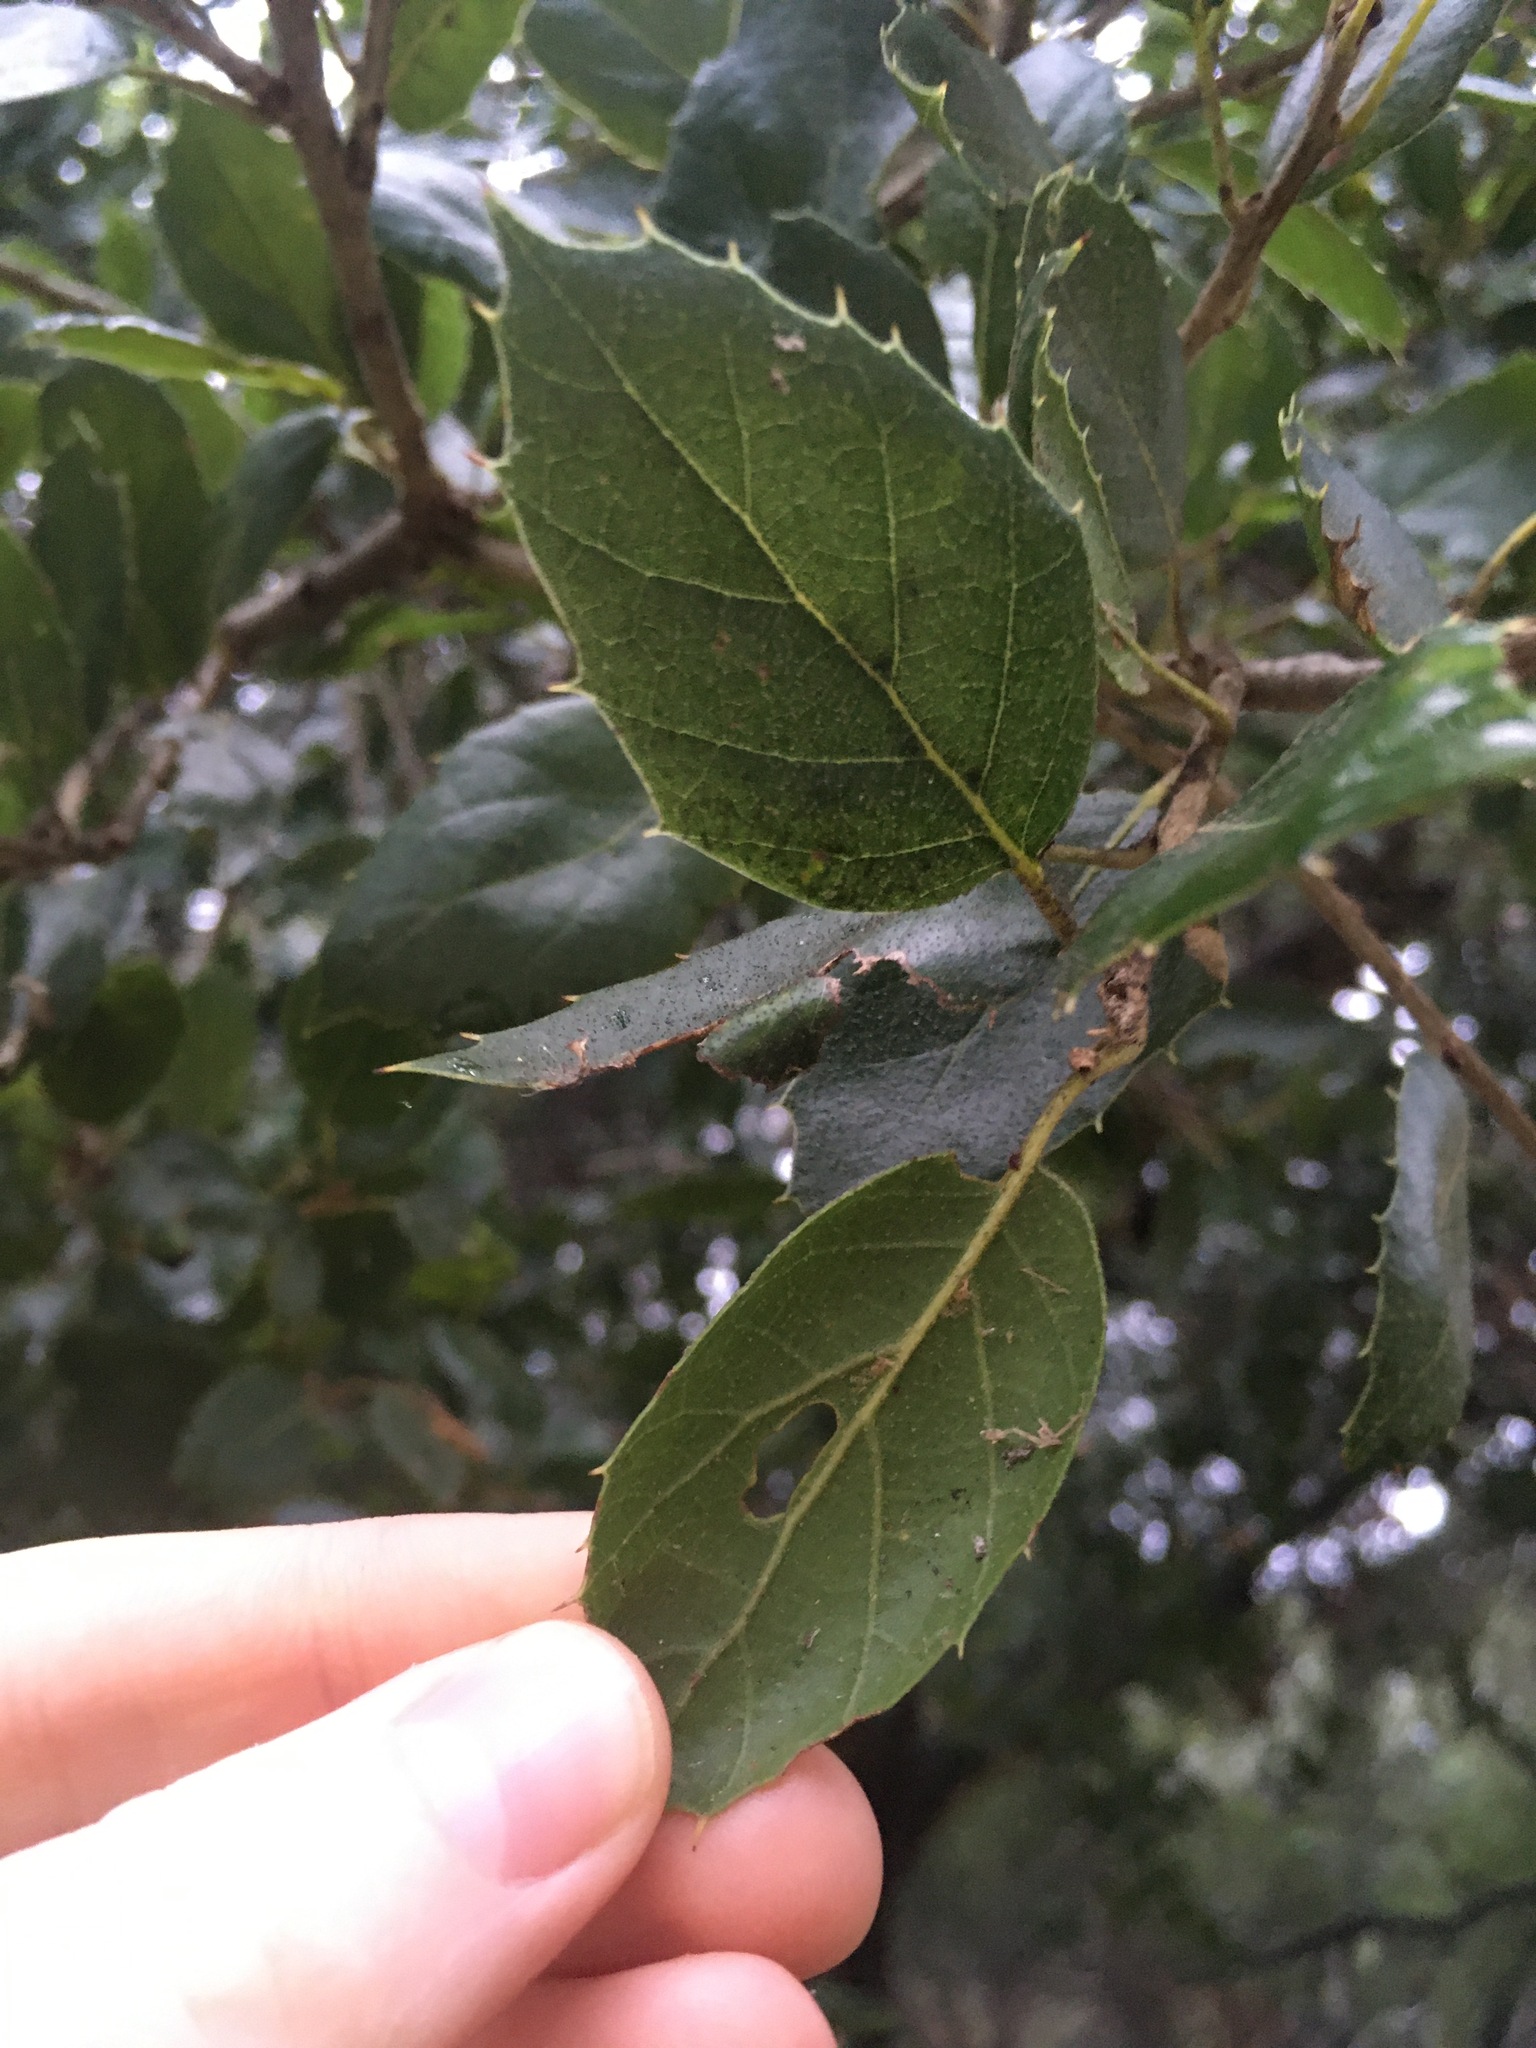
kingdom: Plantae
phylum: Tracheophyta
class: Magnoliopsida
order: Fagales
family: Fagaceae
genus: Quercus
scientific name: Quercus agrifolia
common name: California live oak
